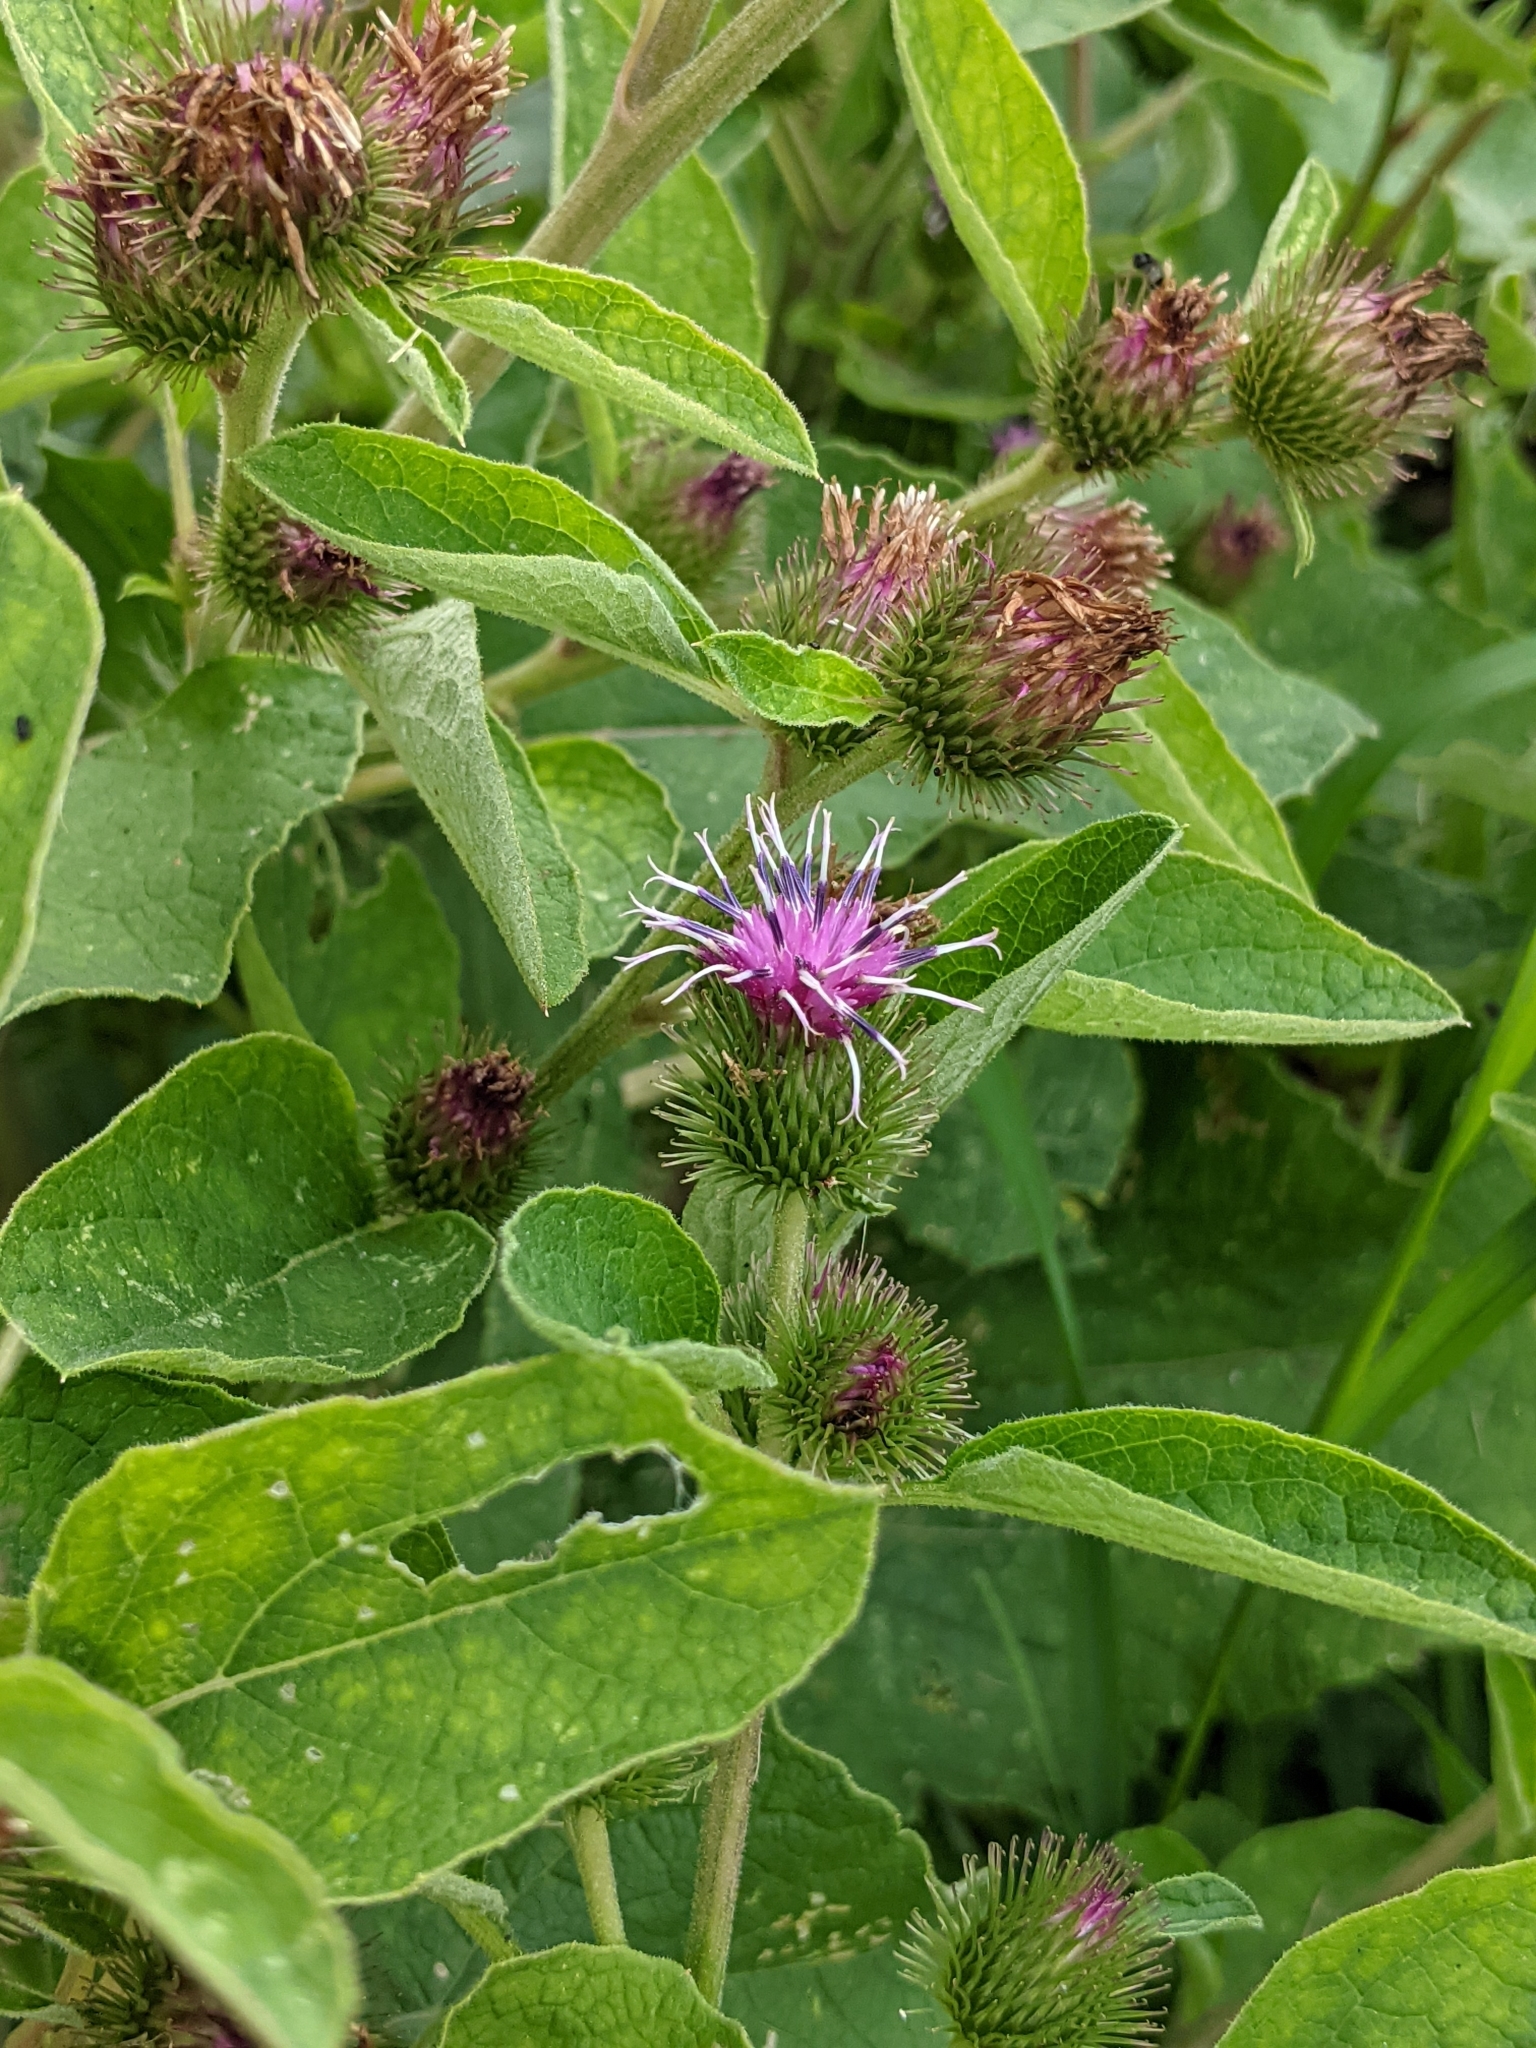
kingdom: Plantae
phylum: Tracheophyta
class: Magnoliopsida
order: Asterales
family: Asteraceae
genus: Arctium
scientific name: Arctium minus
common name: Lesser burdock
